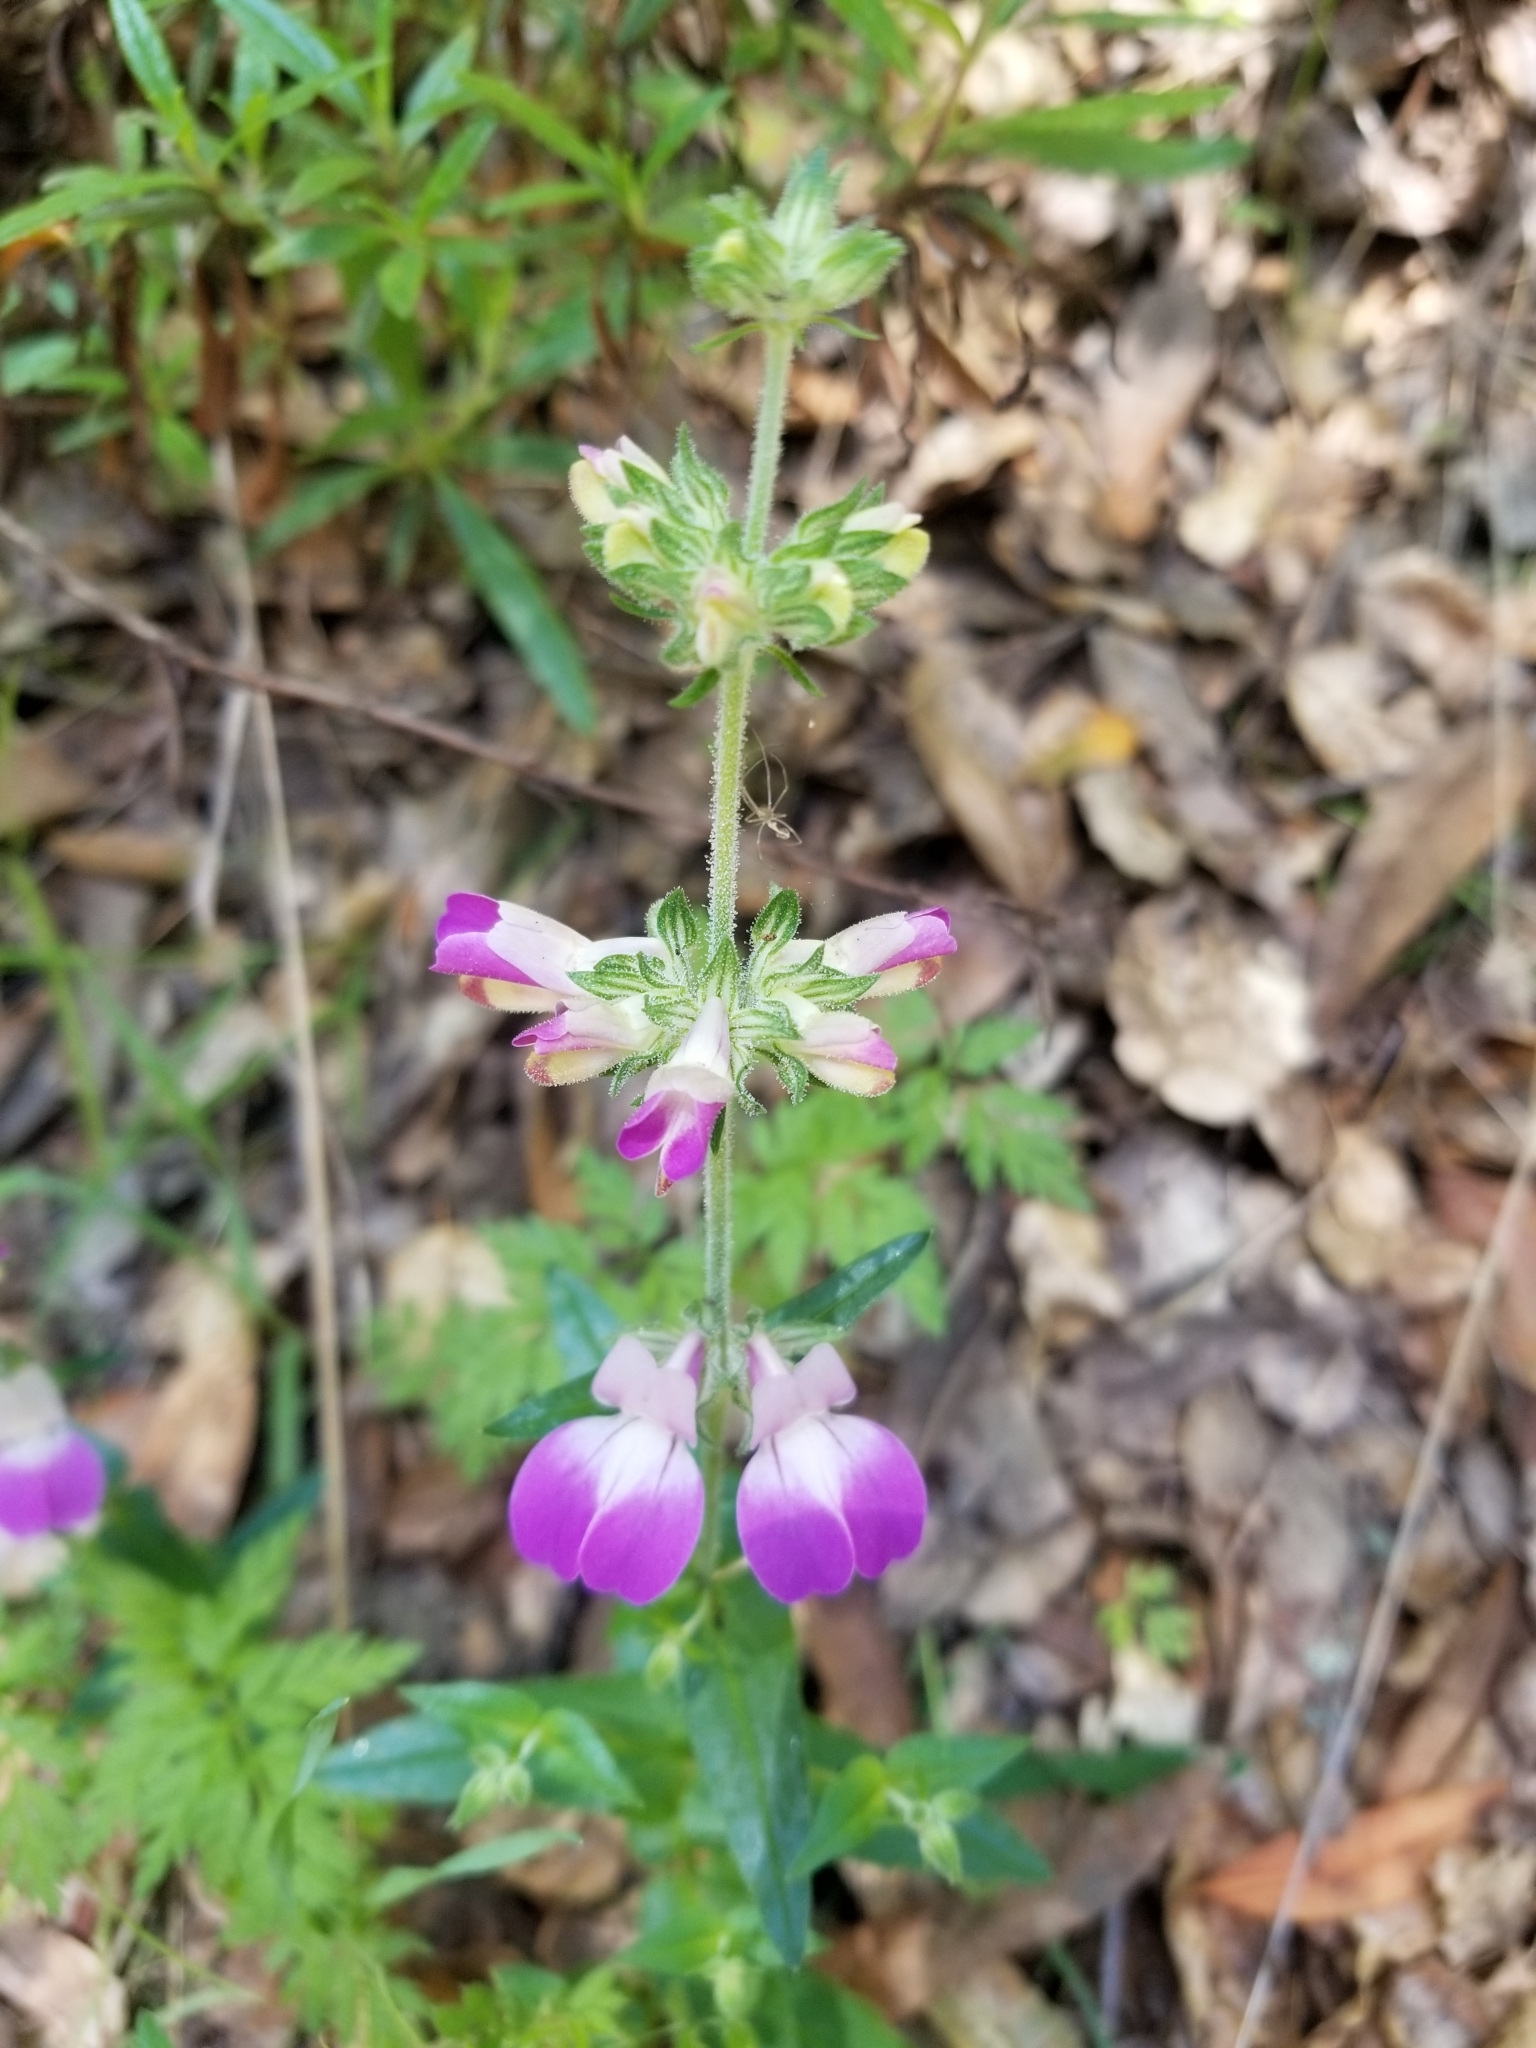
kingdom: Plantae
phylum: Tracheophyta
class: Magnoliopsida
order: Lamiales
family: Plantaginaceae
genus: Collinsia
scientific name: Collinsia heterophylla
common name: Chinese-houses
